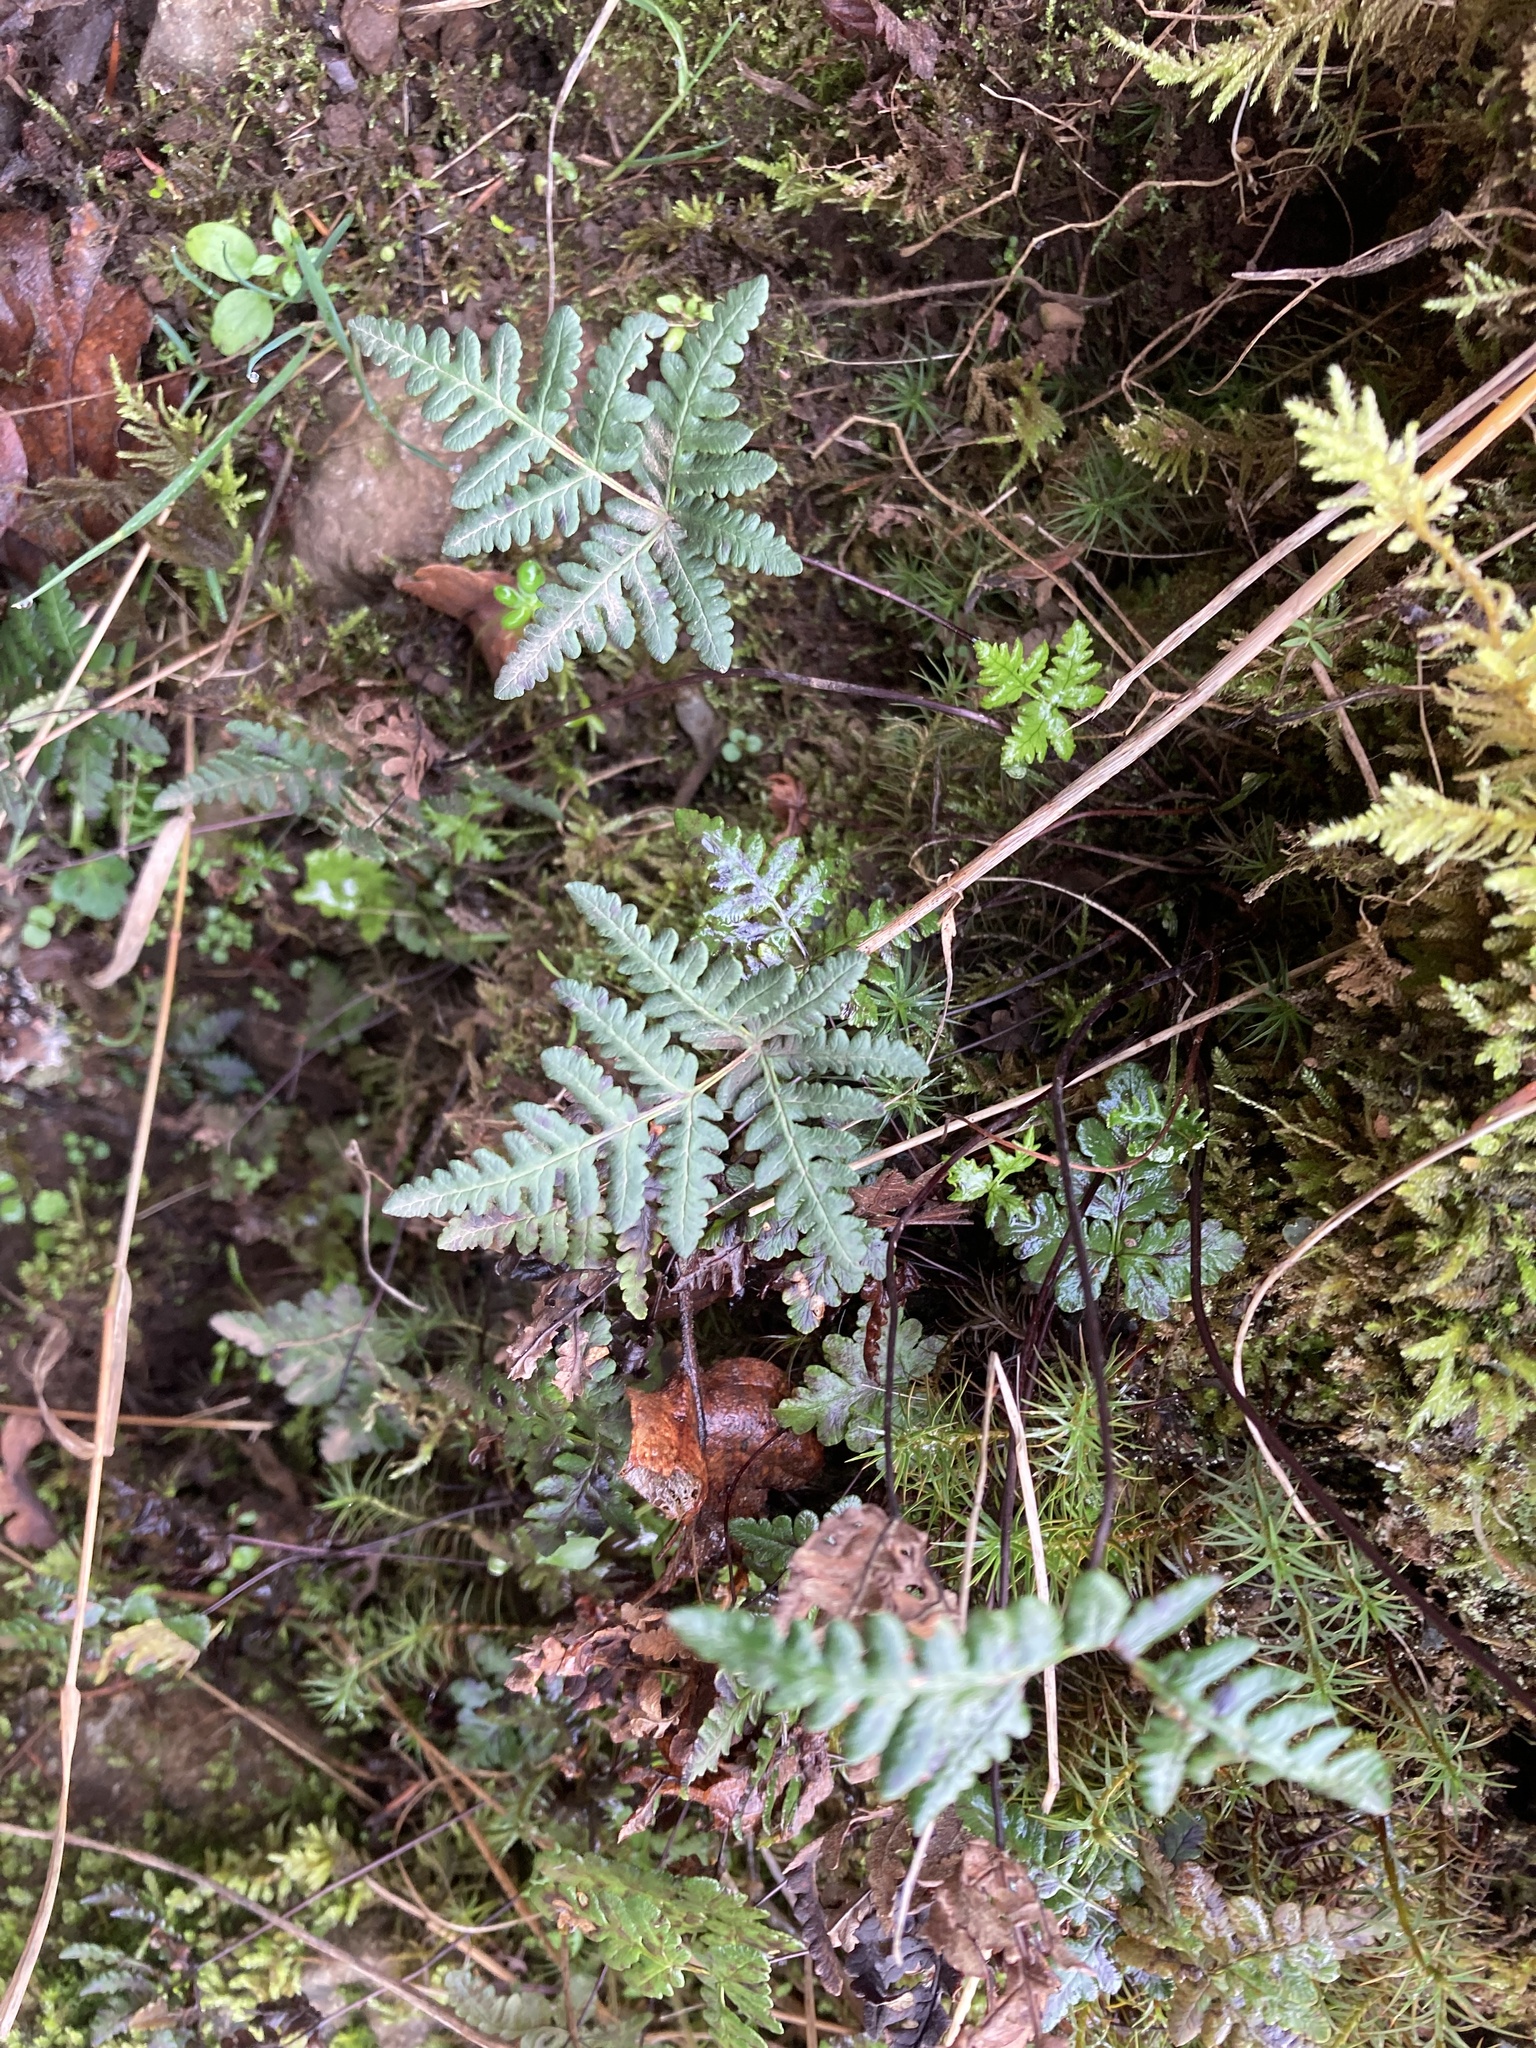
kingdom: Plantae
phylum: Tracheophyta
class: Polypodiopsida
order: Polypodiales
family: Pteridaceae
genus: Pentagramma
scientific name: Pentagramma triangularis
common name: Gold fern
